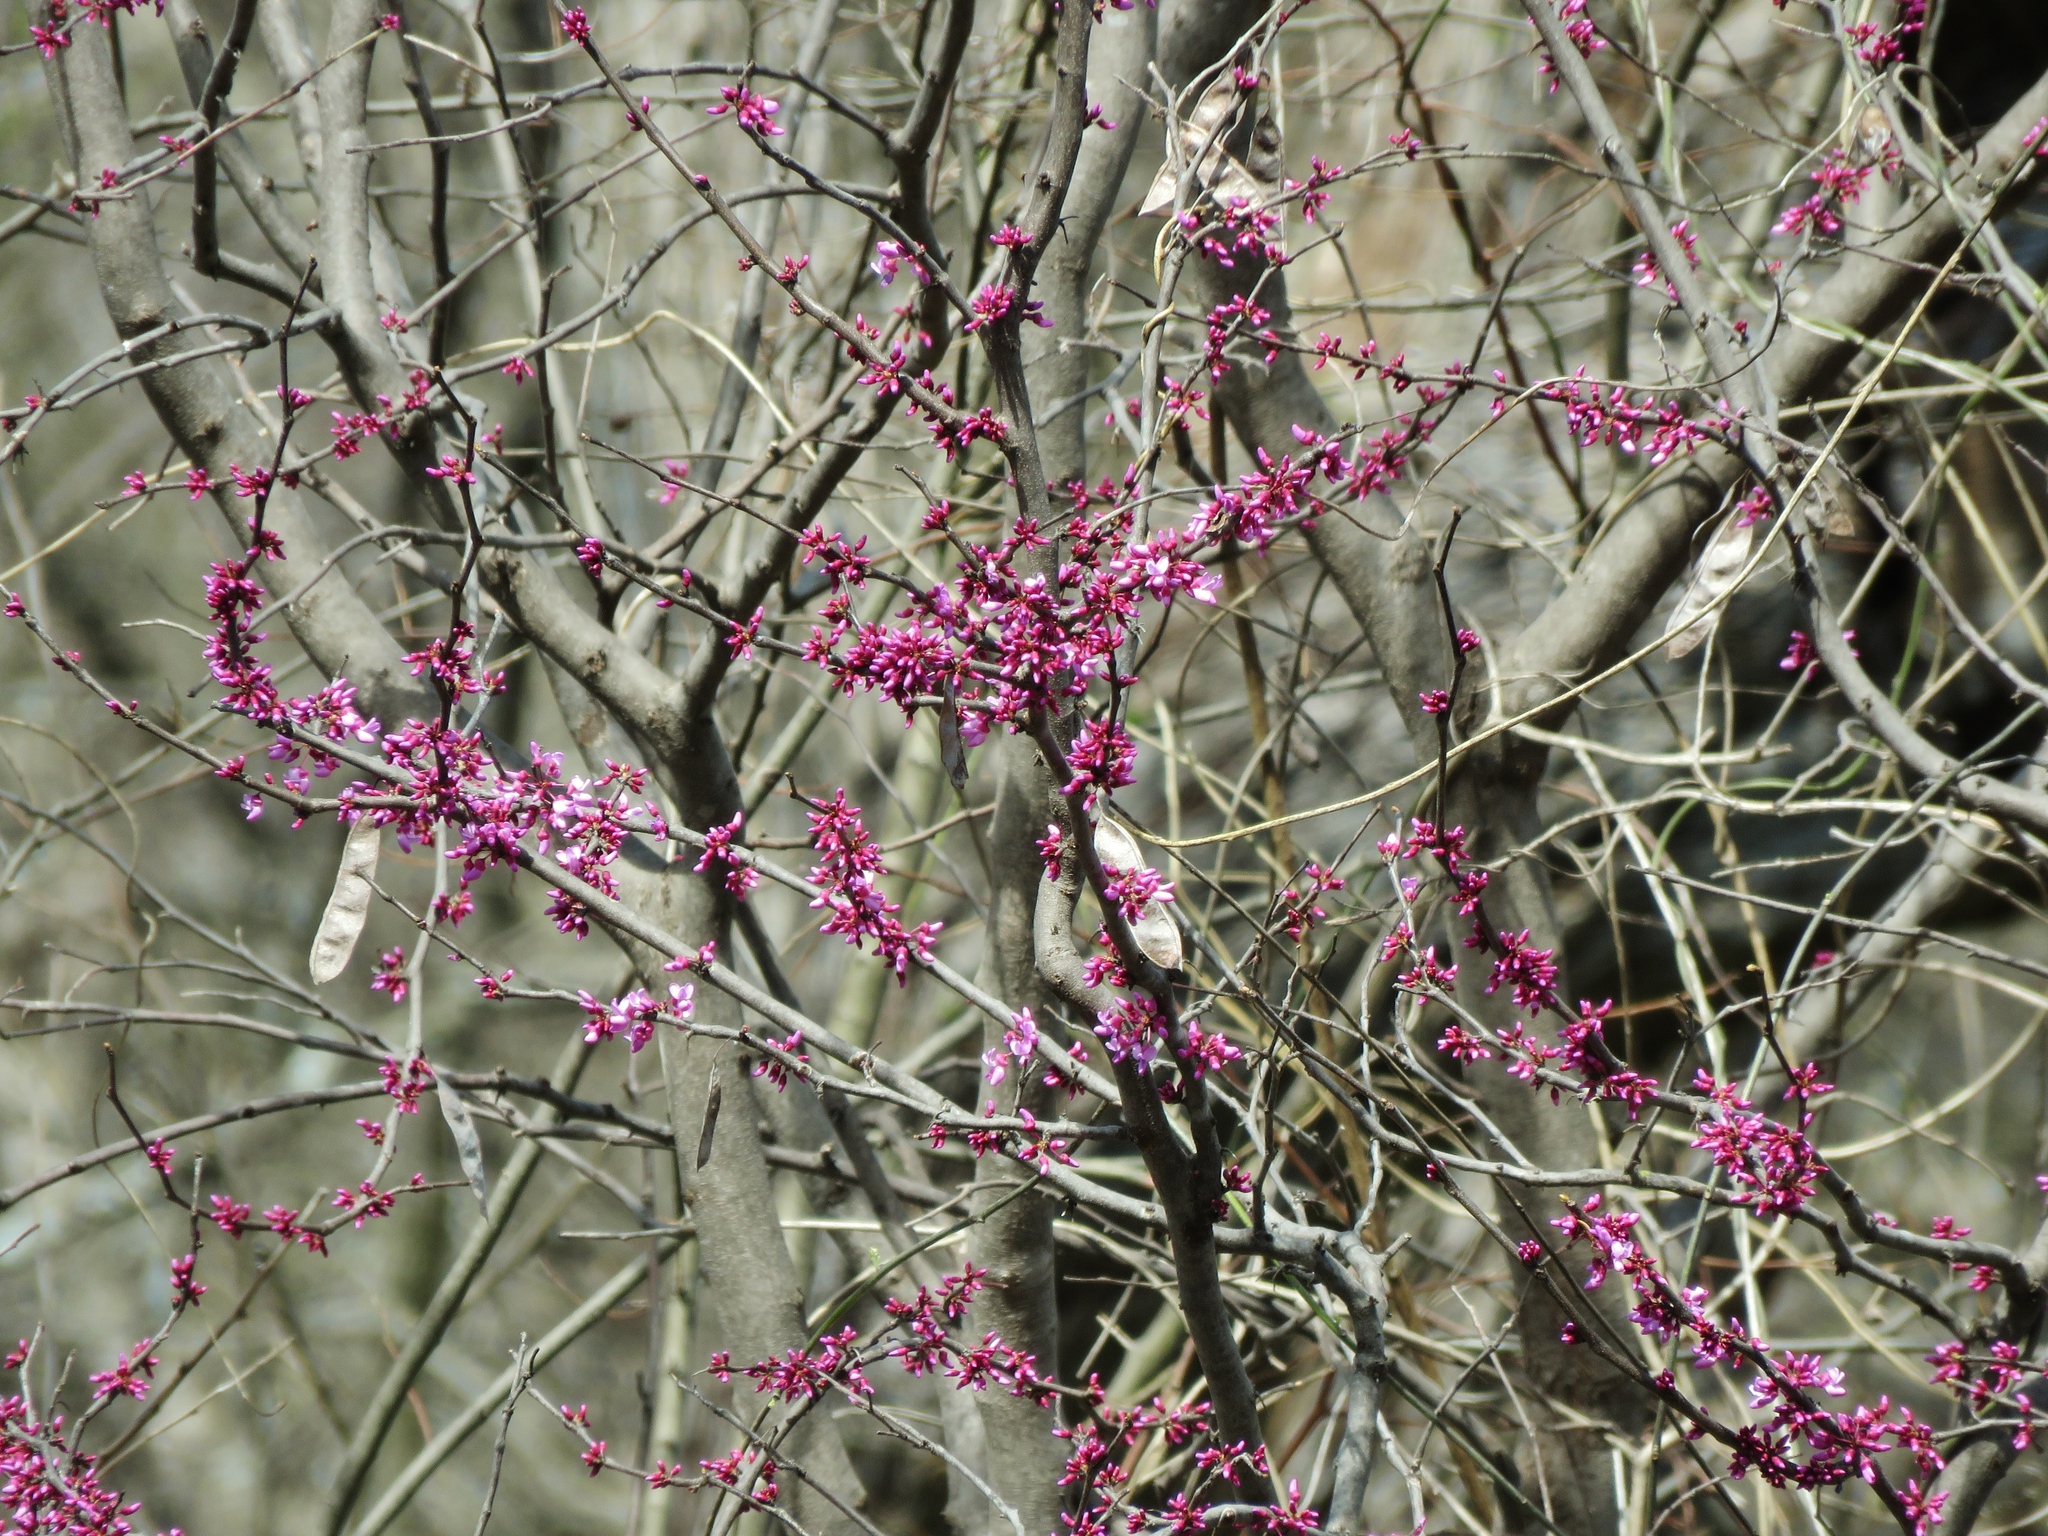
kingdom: Plantae
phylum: Tracheophyta
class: Magnoliopsida
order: Fabales
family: Fabaceae
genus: Cercis
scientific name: Cercis canadensis
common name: Eastern redbud
